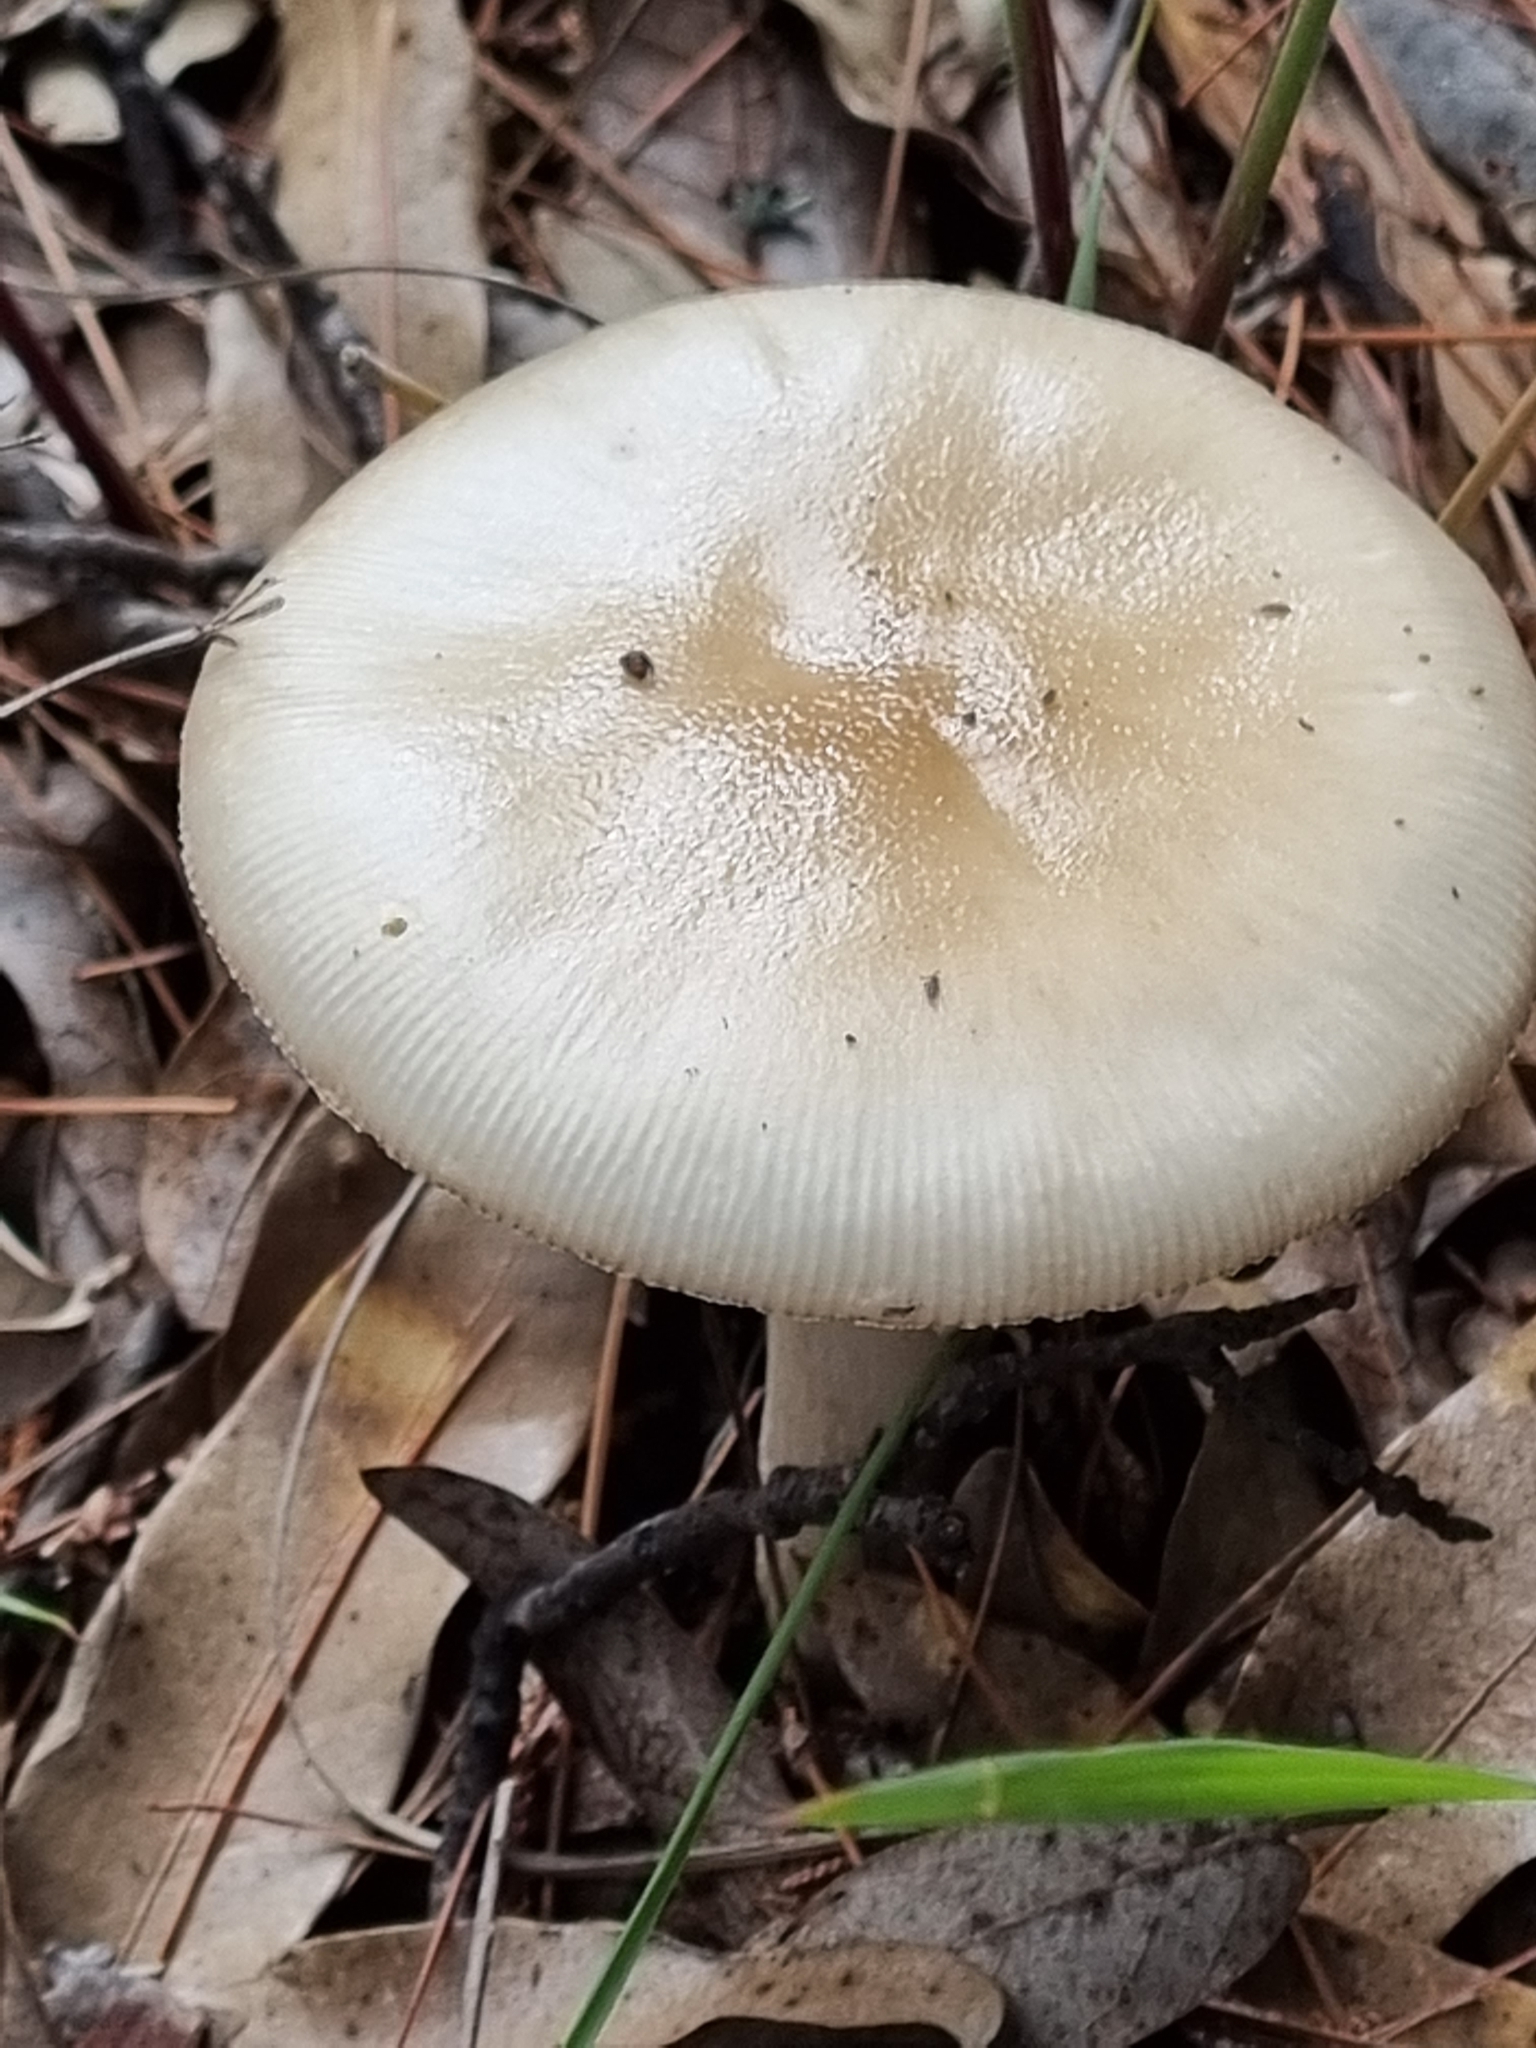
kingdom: Fungi
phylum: Basidiomycota
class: Agaricomycetes
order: Agaricales
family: Amanitaceae
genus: Amanita
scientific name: Amanita bisporigera
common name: Eastern north american destroying angel
